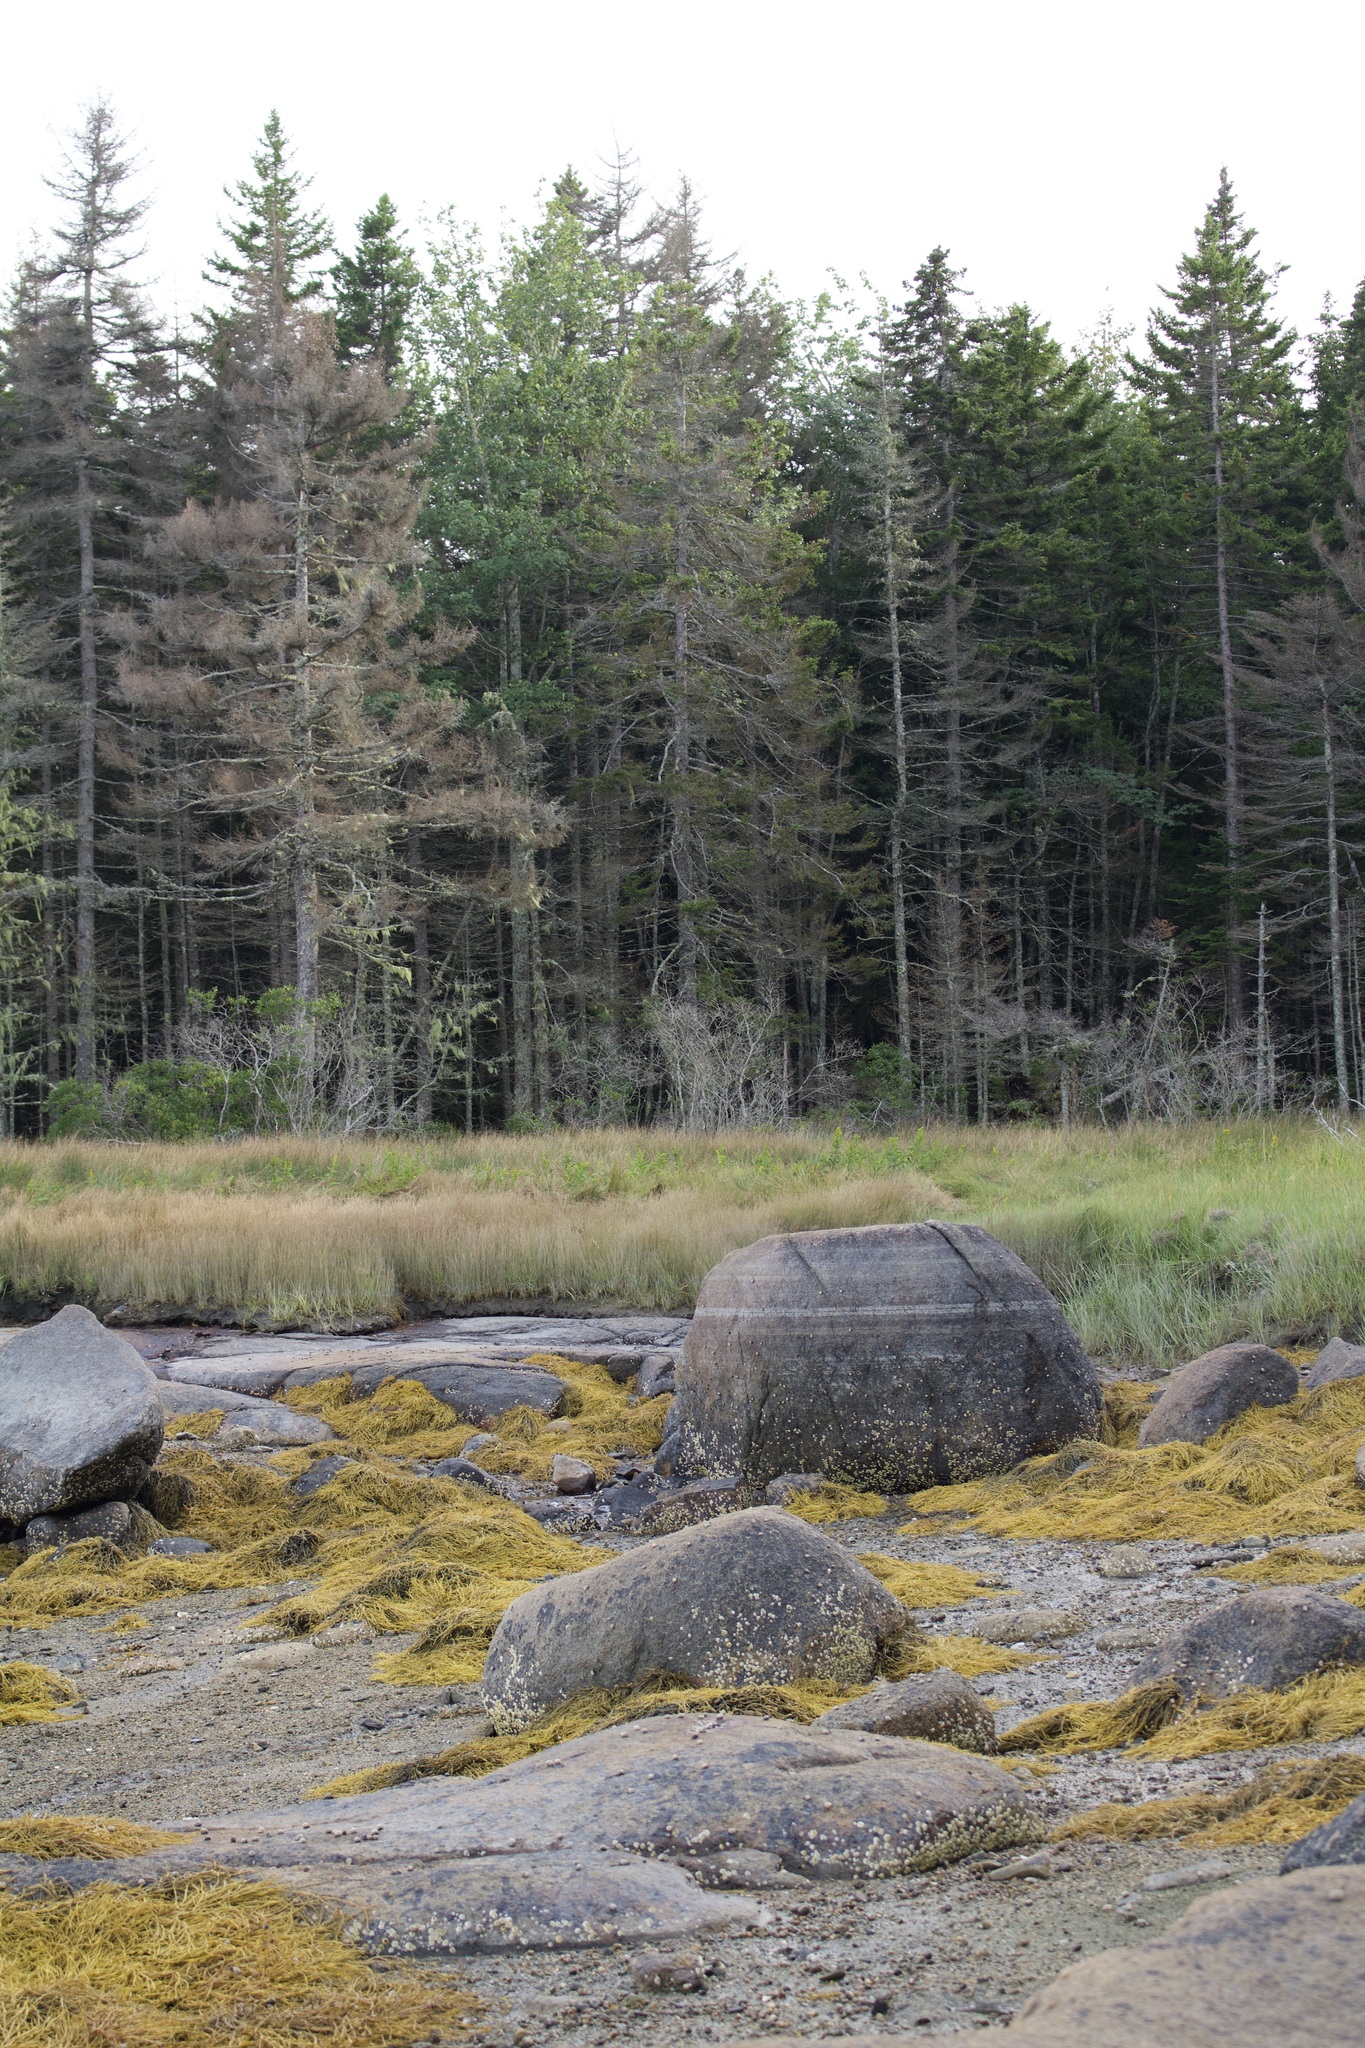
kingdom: Chromista
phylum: Ochrophyta
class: Phaeophyceae
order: Fucales
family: Fucaceae
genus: Ascophyllum
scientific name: Ascophyllum nodosum
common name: Knotted wrack
